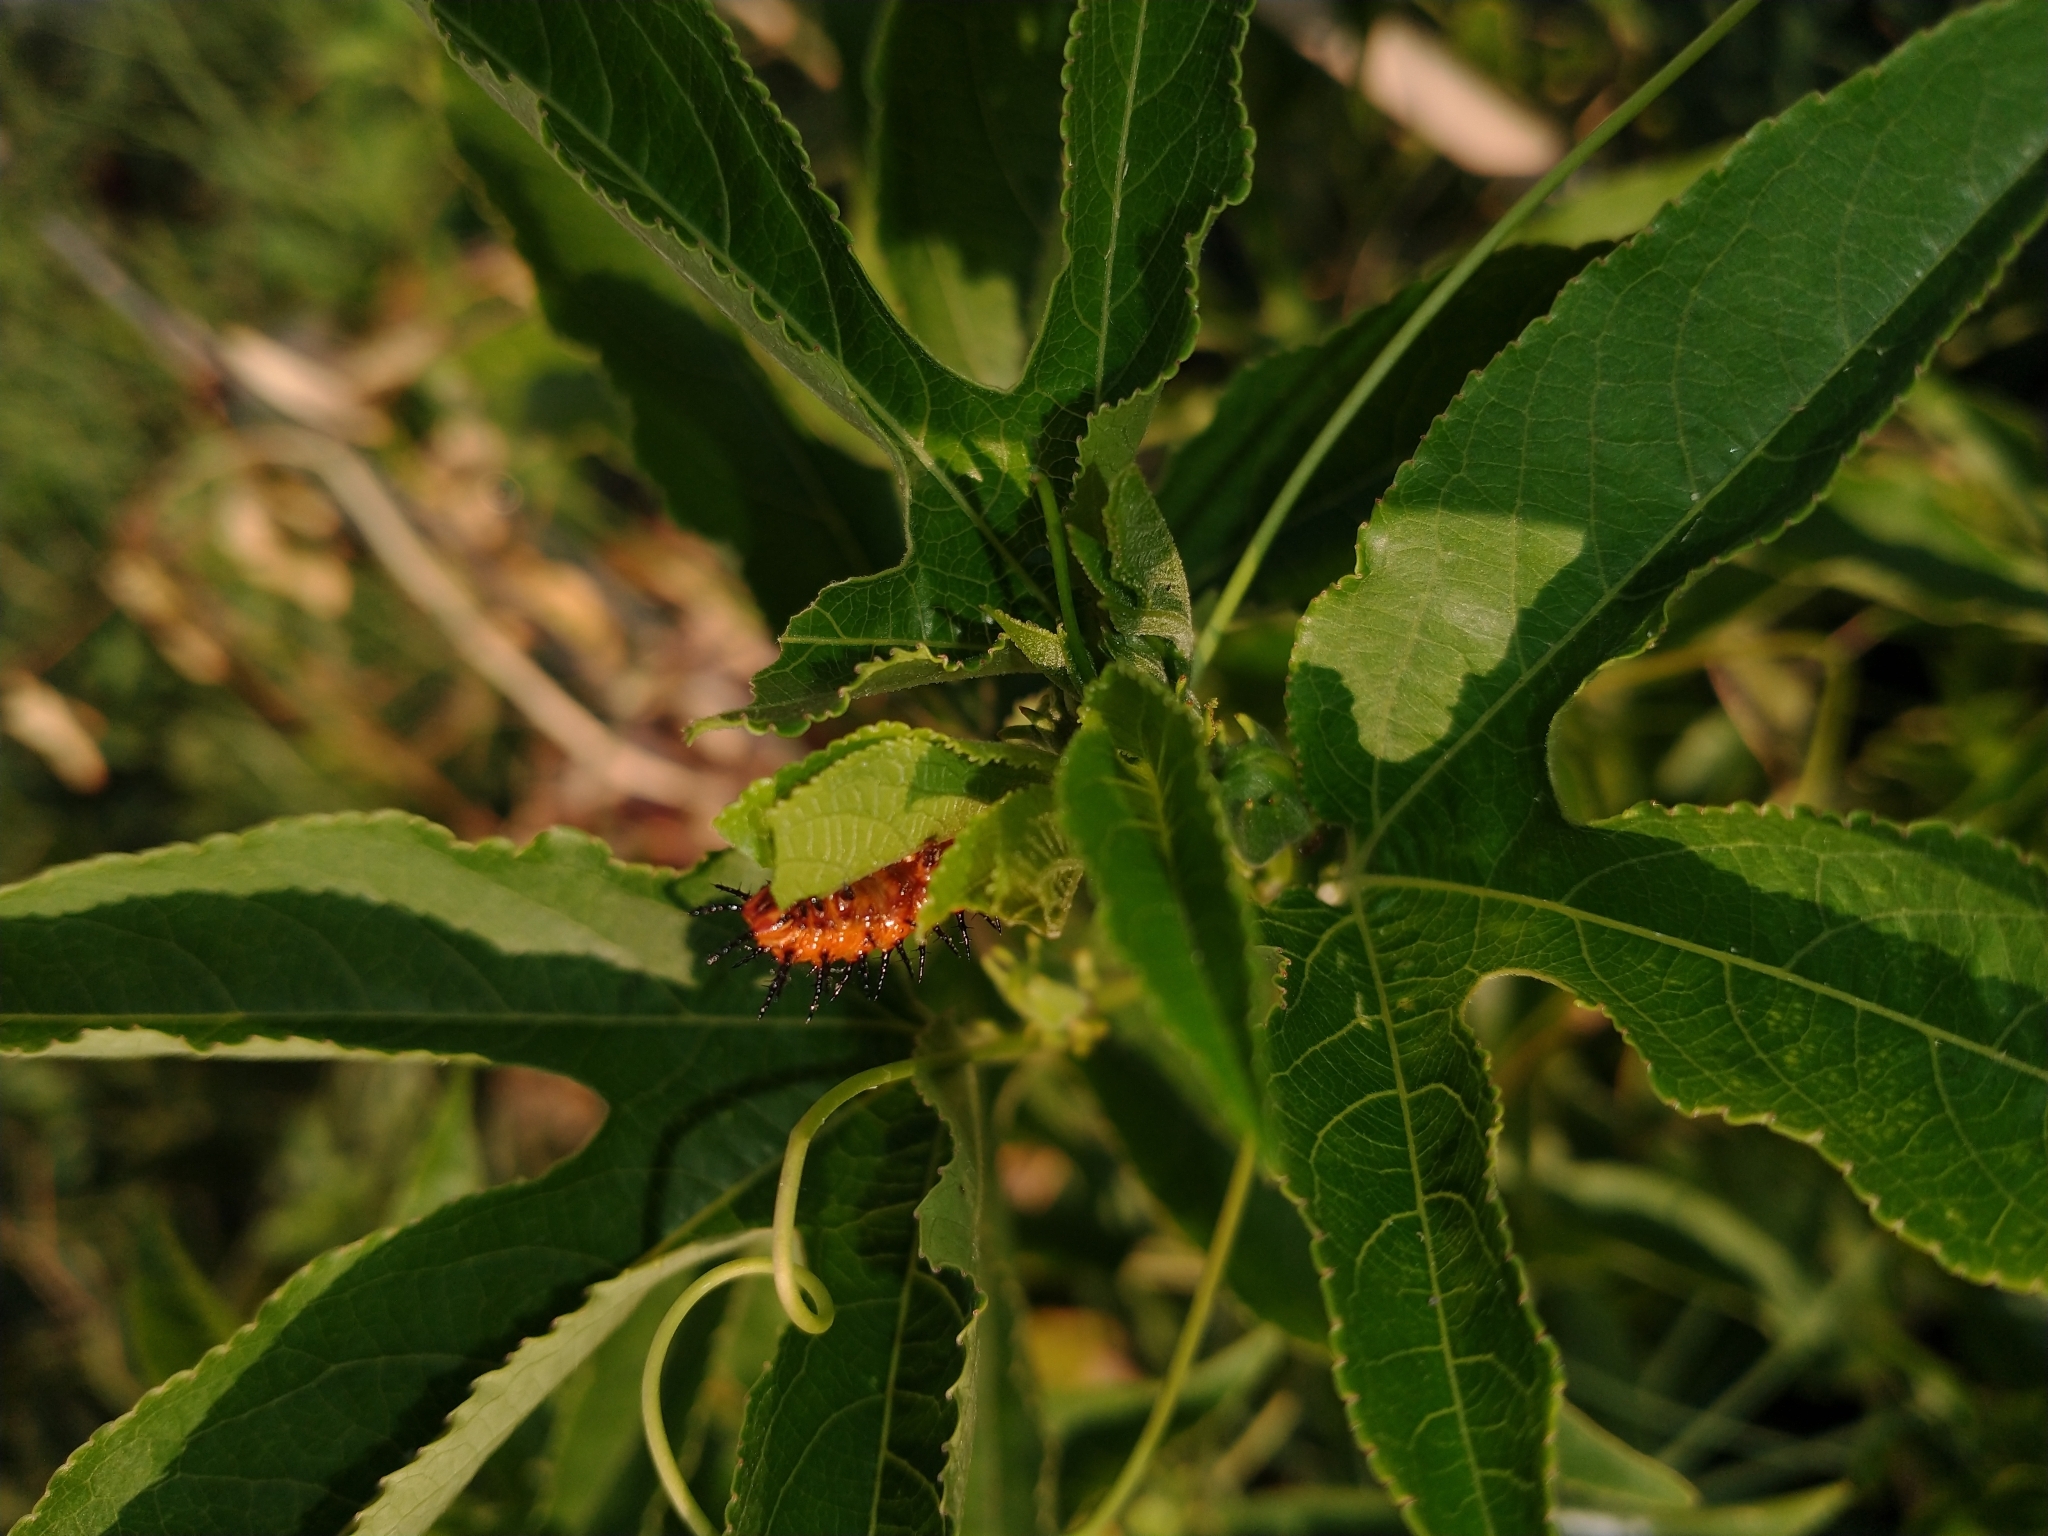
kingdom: Animalia
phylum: Arthropoda
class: Insecta
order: Lepidoptera
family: Nymphalidae
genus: Dione
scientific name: Dione vanillae
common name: Gulf fritillary
